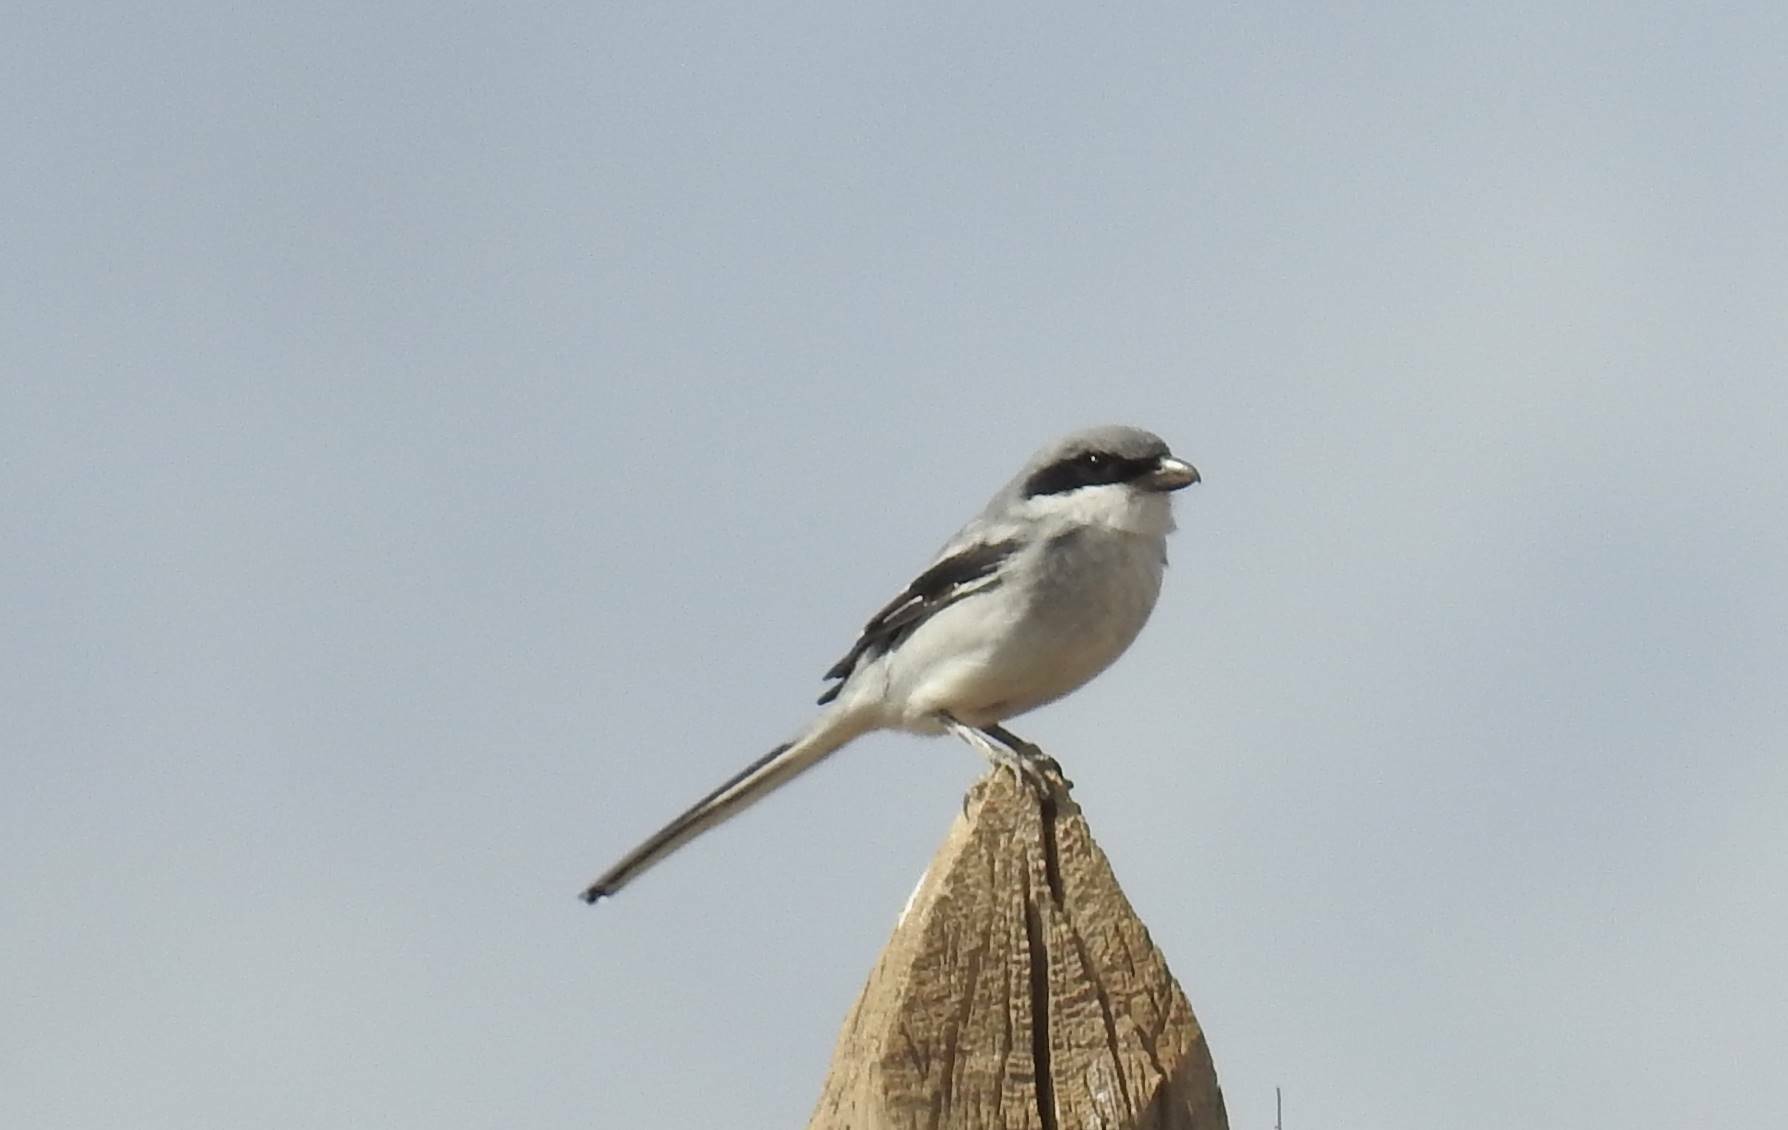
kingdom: Animalia
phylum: Chordata
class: Aves
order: Passeriformes
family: Laniidae
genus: Lanius
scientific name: Lanius excubitor
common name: Great grey shrike
